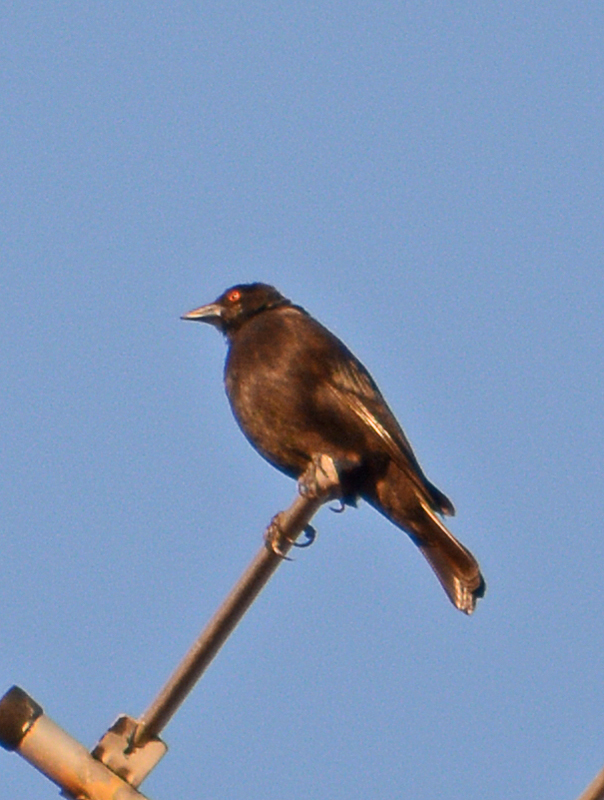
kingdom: Animalia
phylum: Chordata
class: Aves
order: Passeriformes
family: Icteridae
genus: Molothrus
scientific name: Molothrus aeneus
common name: Bronzed cowbird
